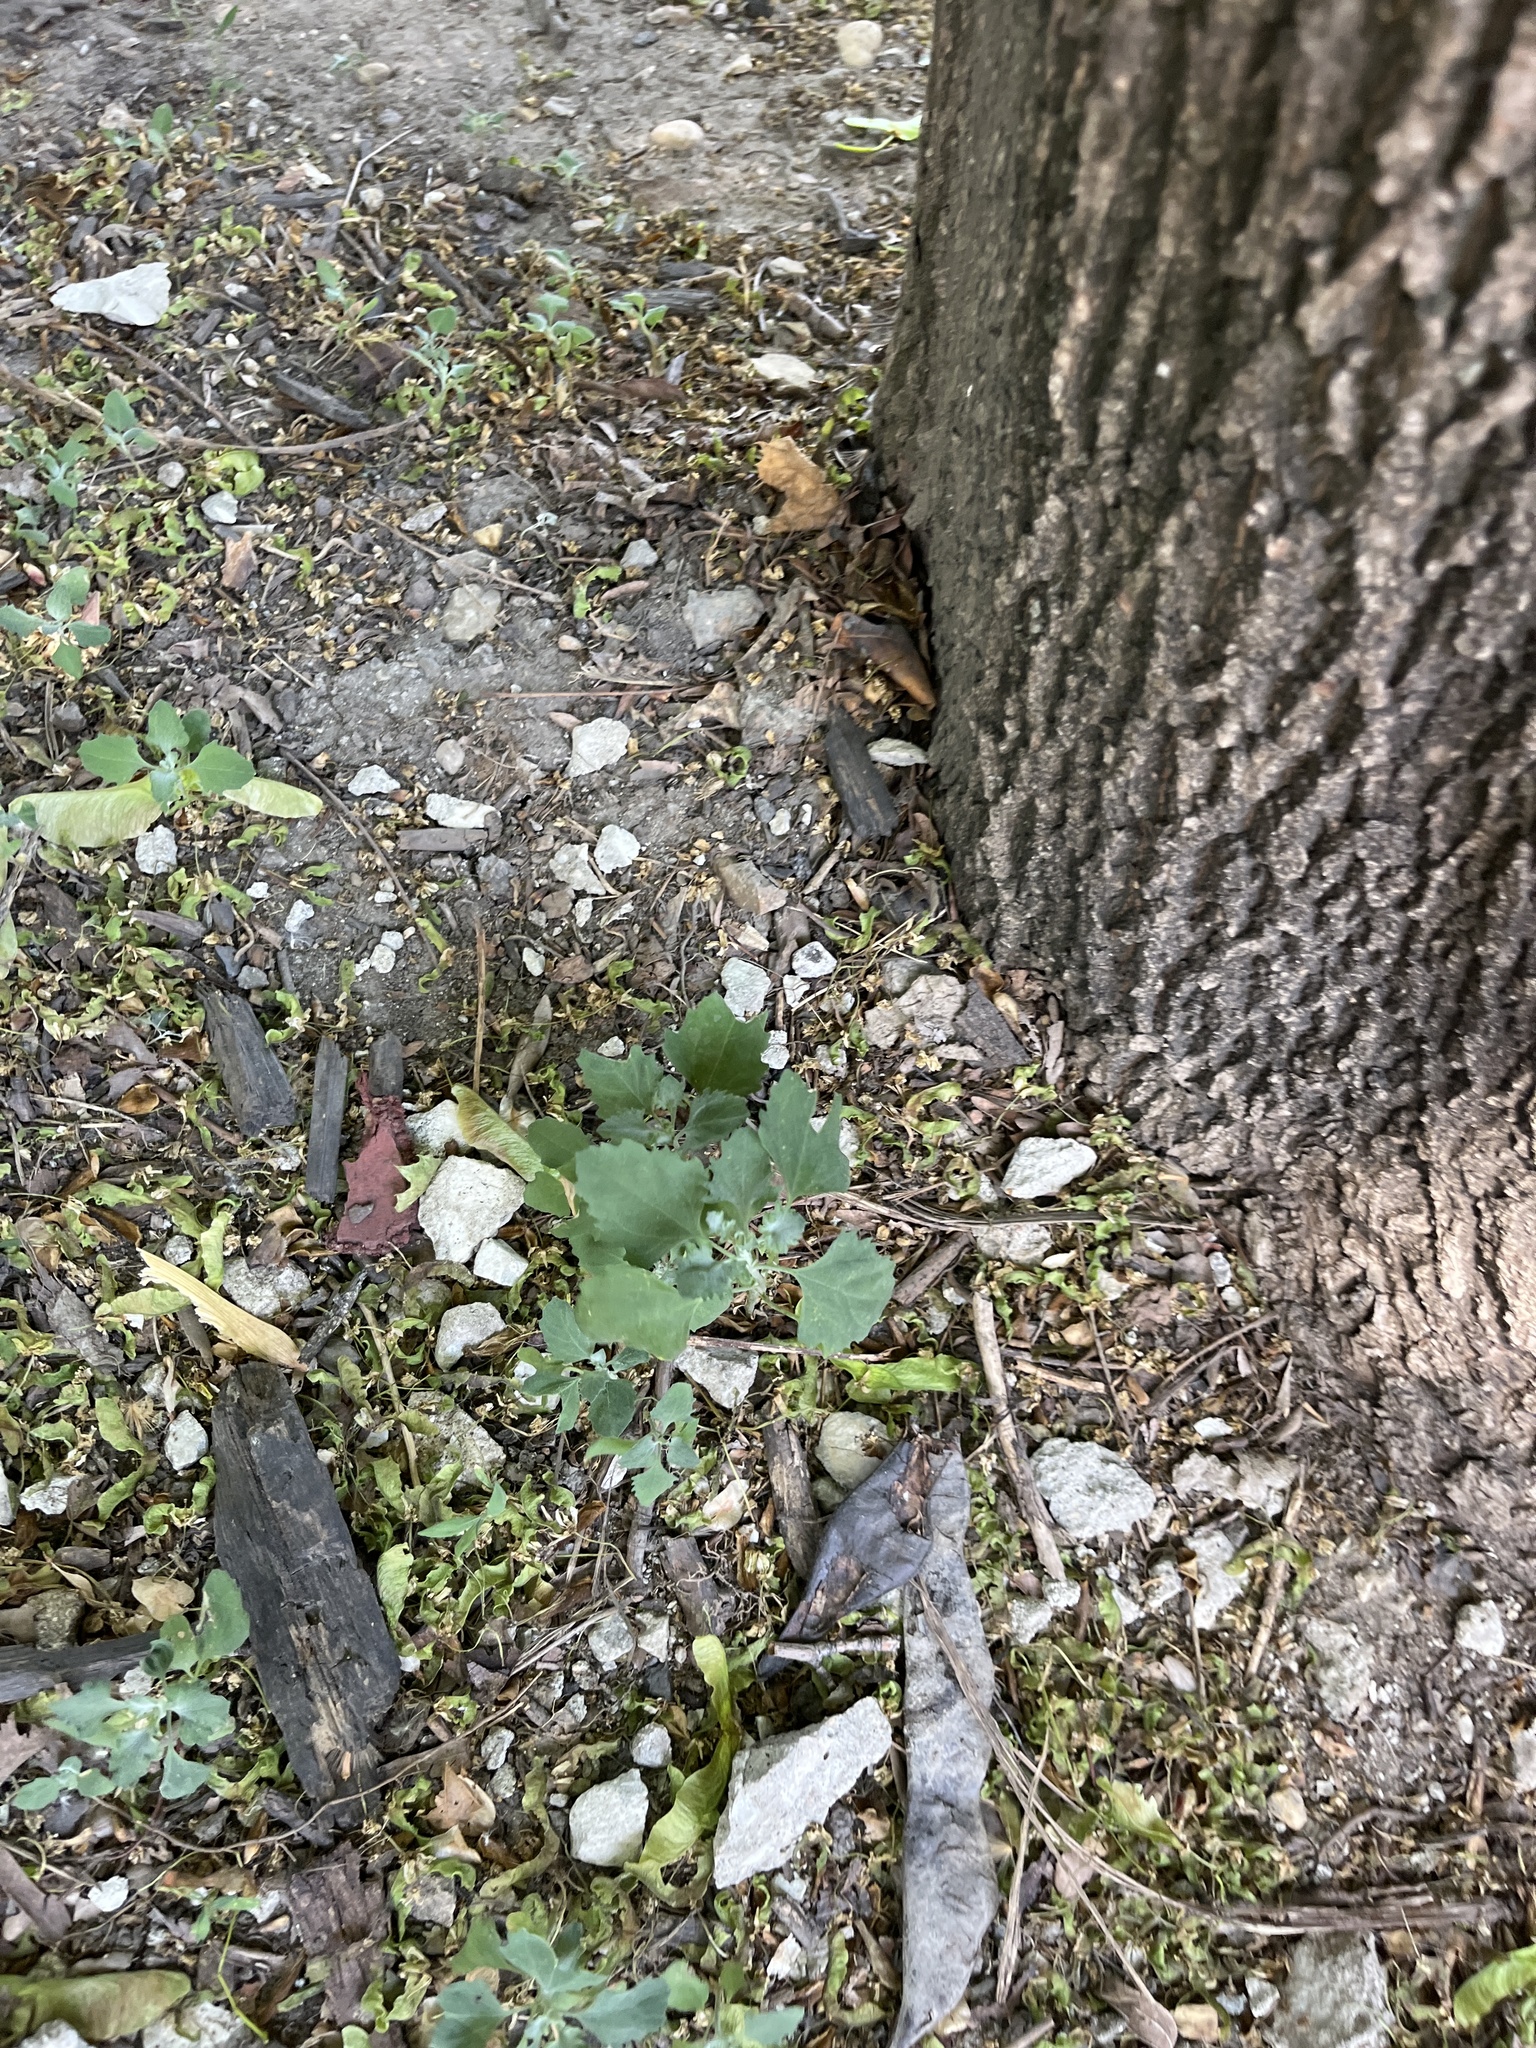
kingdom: Plantae
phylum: Tracheophyta
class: Magnoliopsida
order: Caryophyllales
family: Amaranthaceae
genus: Chenopodium
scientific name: Chenopodium album
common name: Fat-hen
